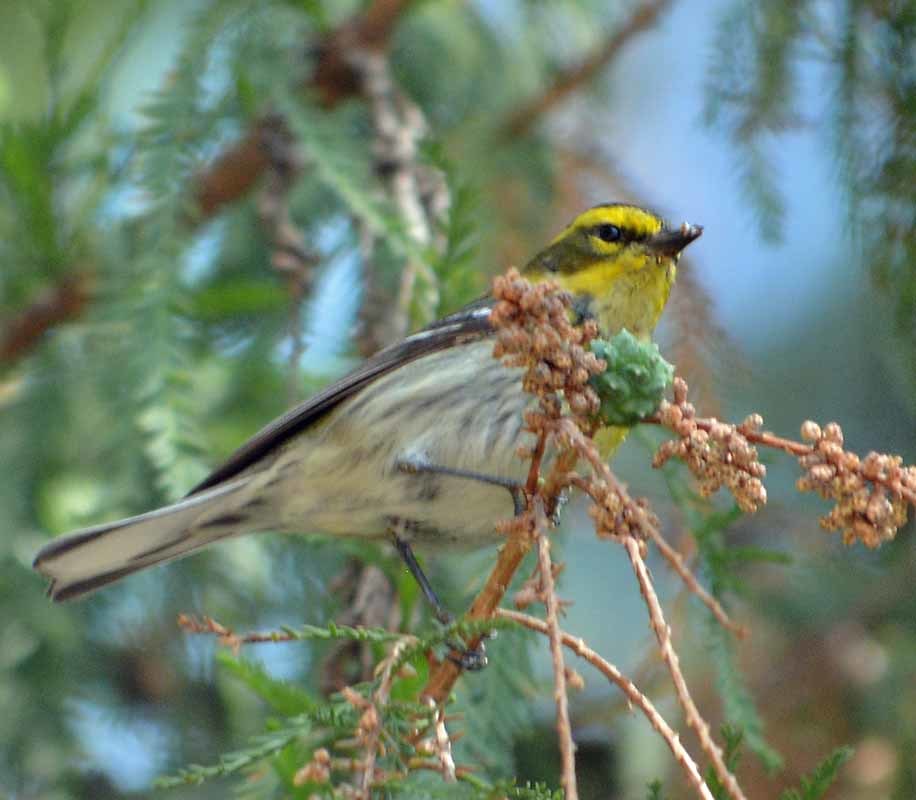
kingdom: Animalia
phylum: Chordata
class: Aves
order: Passeriformes
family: Parulidae
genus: Setophaga
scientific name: Setophaga townsendi
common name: Townsend's warbler
